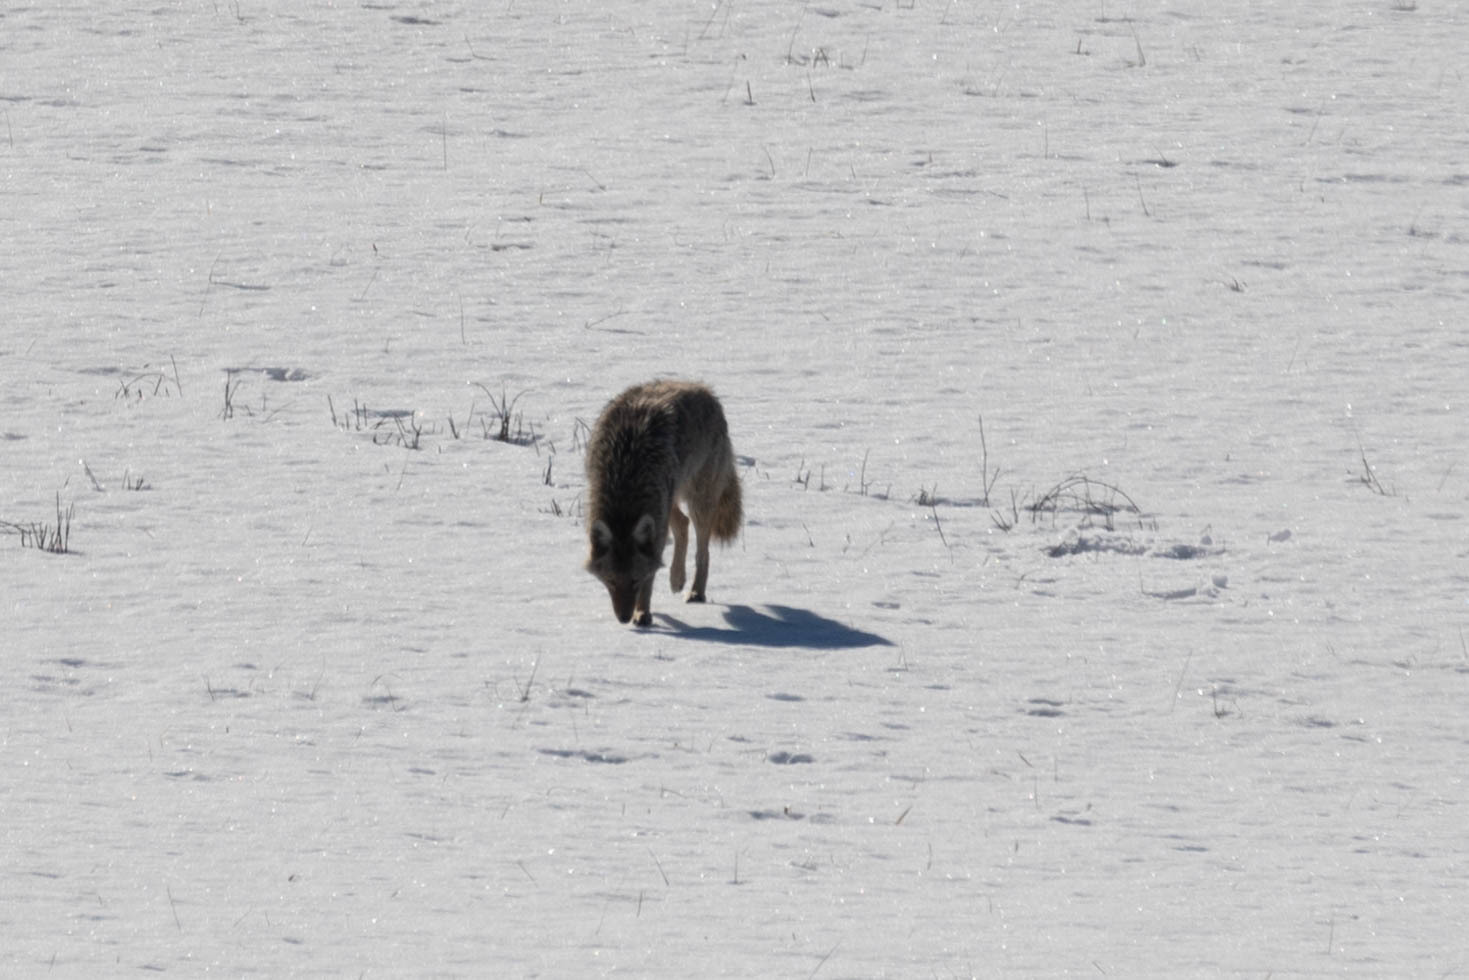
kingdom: Animalia
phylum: Chordata
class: Mammalia
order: Carnivora
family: Canidae
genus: Canis
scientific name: Canis latrans
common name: Coyote
